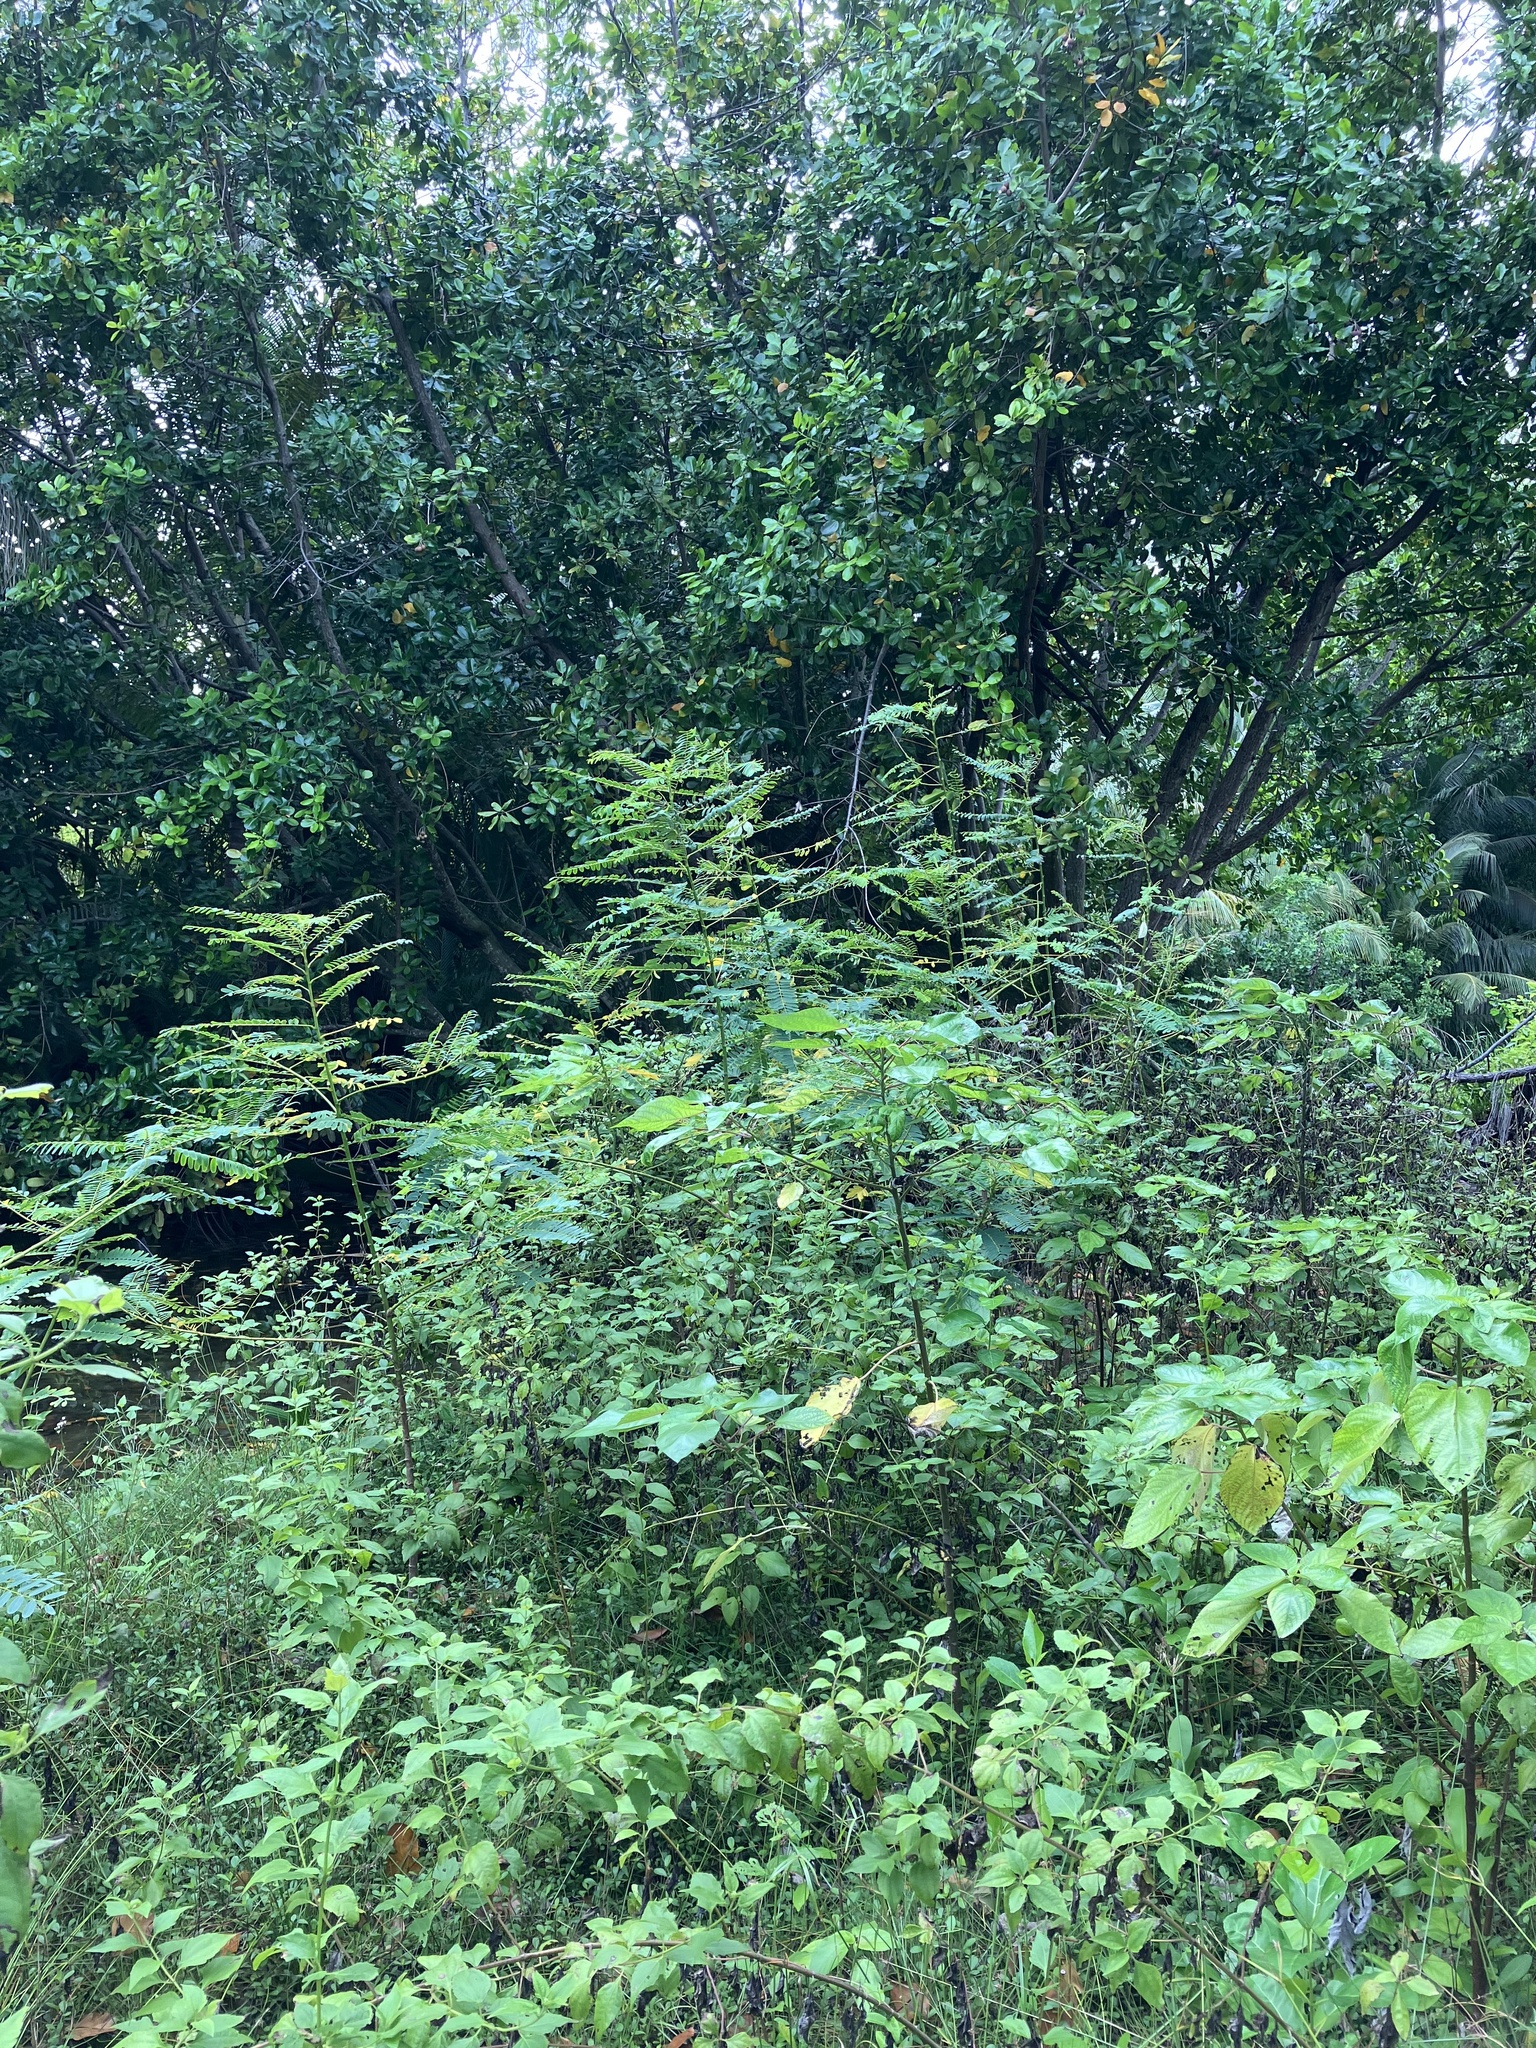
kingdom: Plantae
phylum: Tracheophyta
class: Magnoliopsida
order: Fabales
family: Fabaceae
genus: Sesbania
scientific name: Sesbania grandiflora
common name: Vegetable-hummingbird
